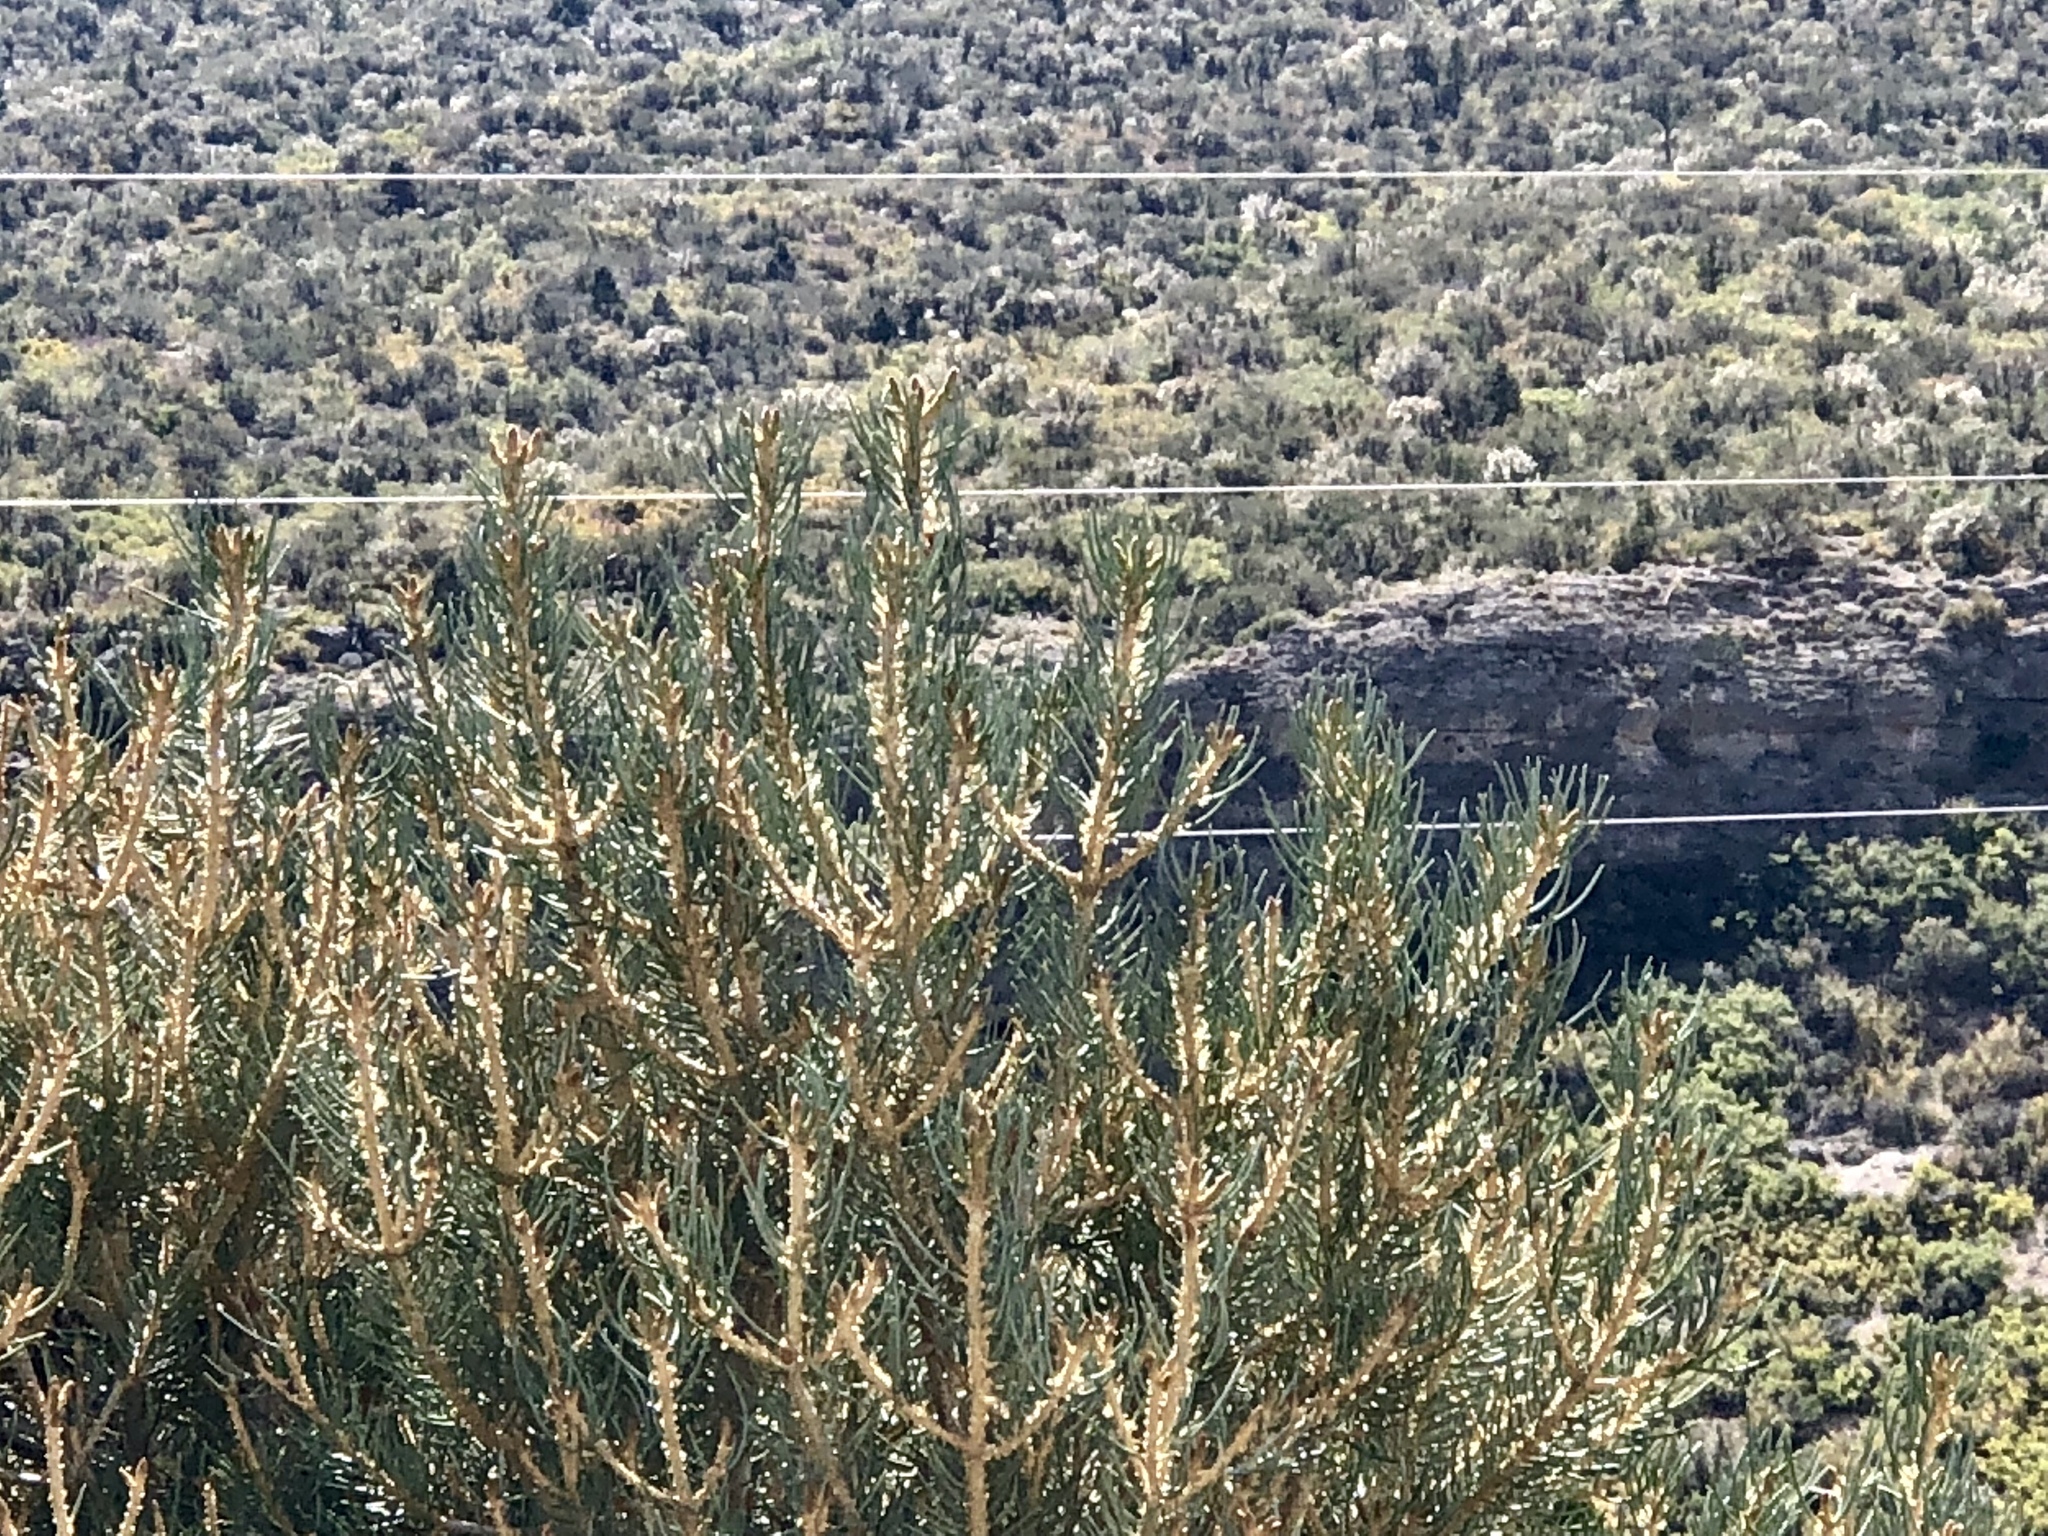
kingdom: Plantae
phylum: Tracheophyta
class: Pinopsida
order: Pinales
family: Pinaceae
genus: Pinus
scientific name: Pinus monophylla
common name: One-leaved nut pine
